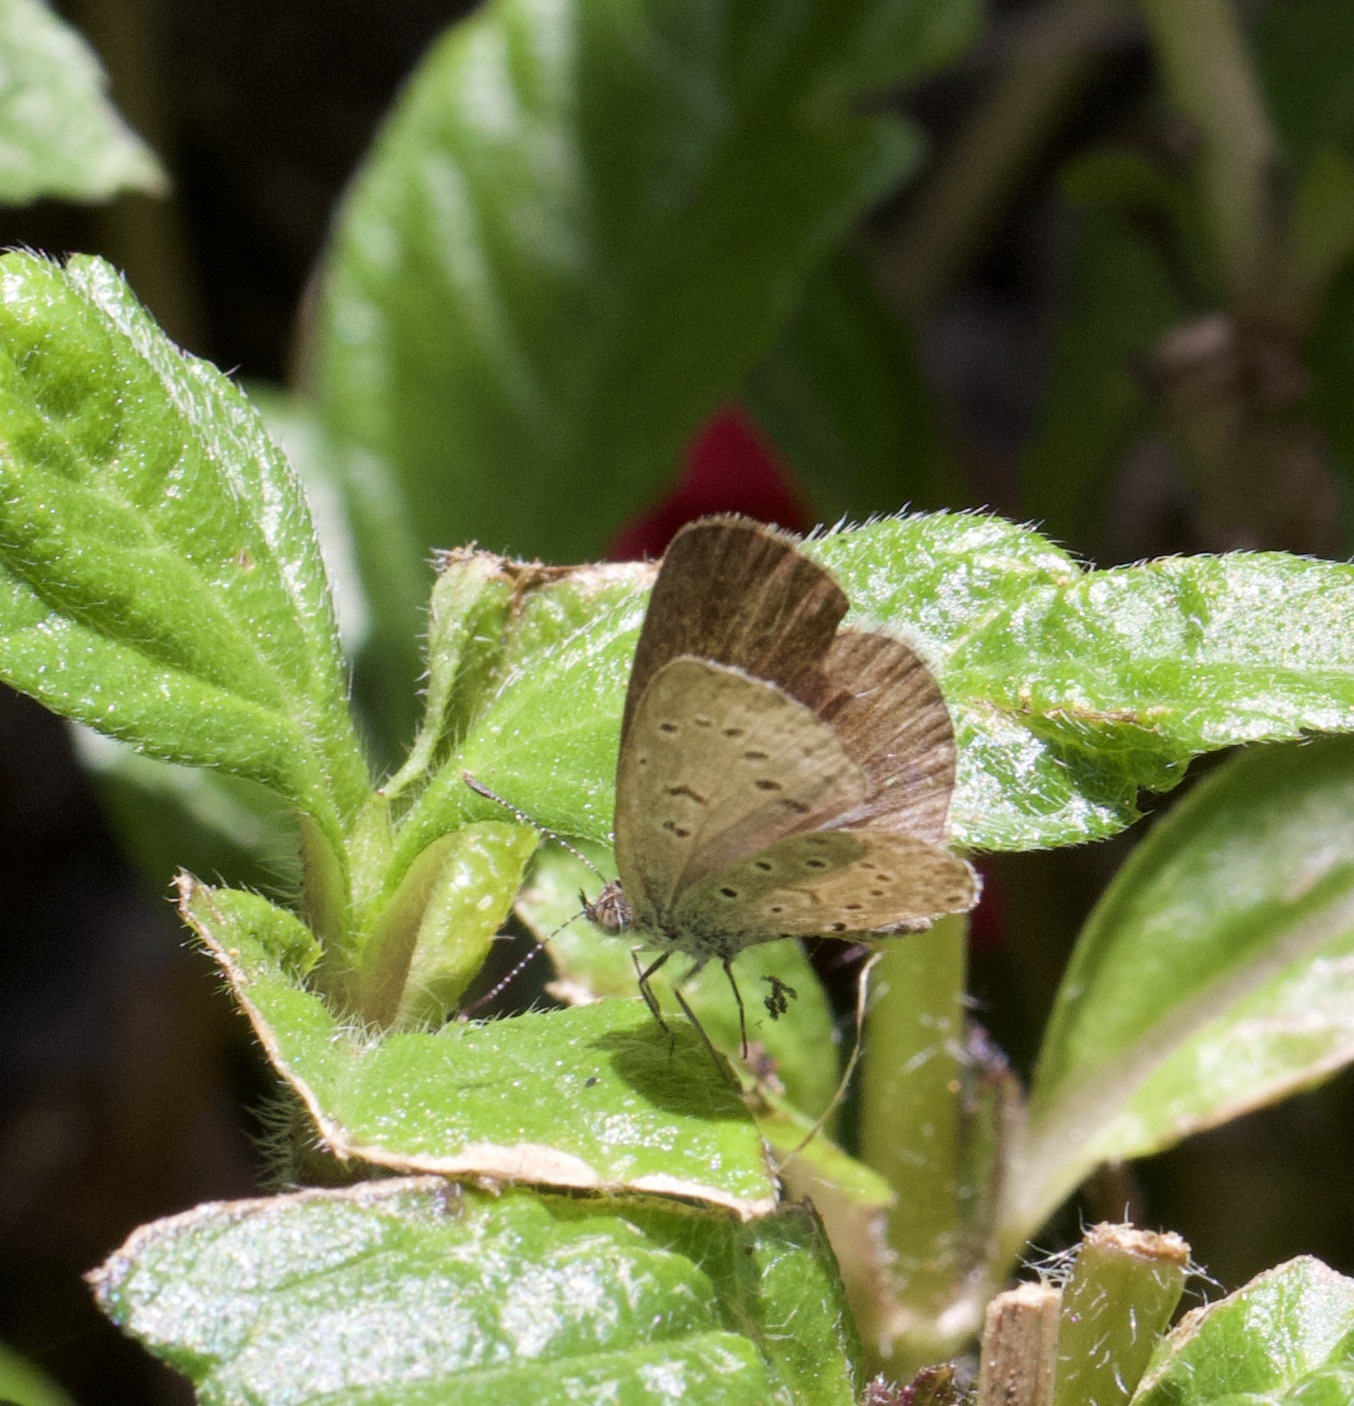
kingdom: Animalia
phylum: Arthropoda
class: Insecta
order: Lepidoptera
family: Lycaenidae
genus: Zizeeria
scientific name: Zizeeria knysna
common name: African grass blue
